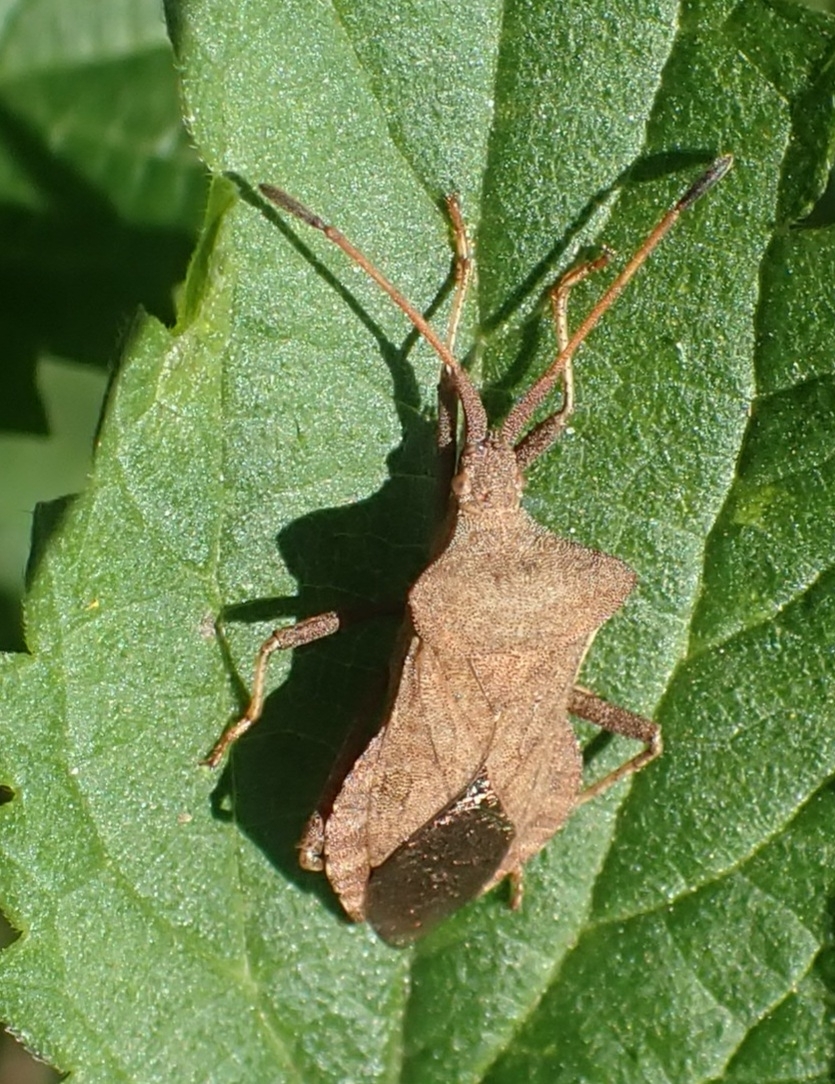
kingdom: Animalia
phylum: Arthropoda
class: Insecta
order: Hemiptera
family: Coreidae
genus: Coreus
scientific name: Coreus marginatus
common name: Dock bug
